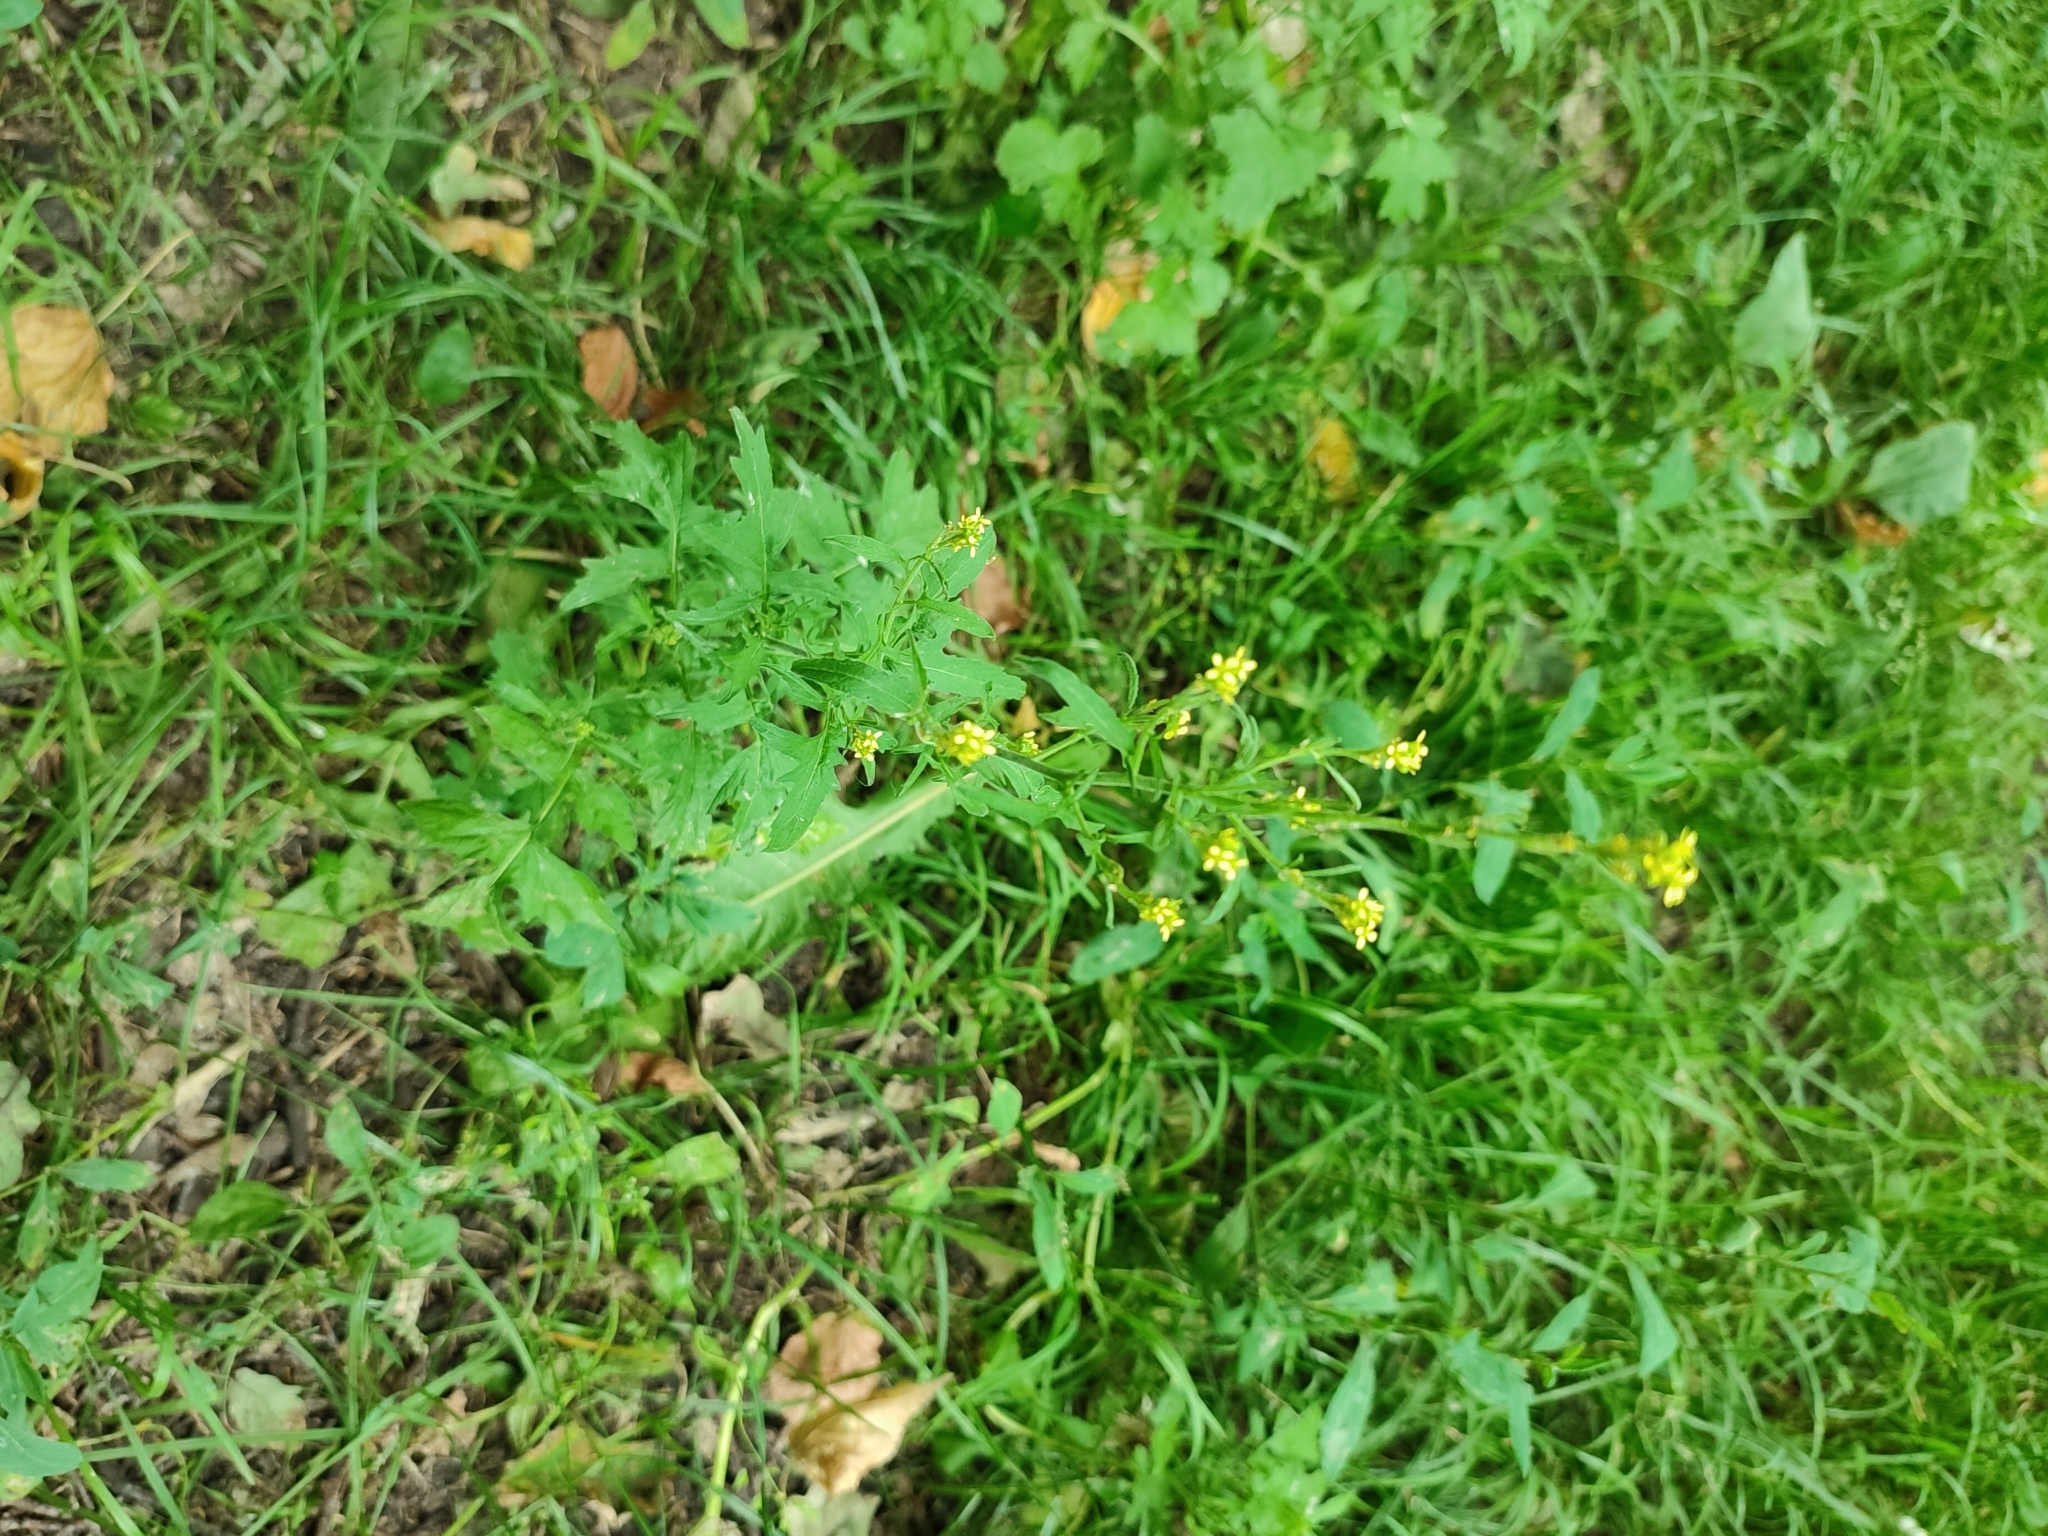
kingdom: Plantae
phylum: Tracheophyta
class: Magnoliopsida
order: Brassicales
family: Brassicaceae
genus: Sisymbrium
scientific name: Sisymbrium officinale
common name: Hedge mustard
